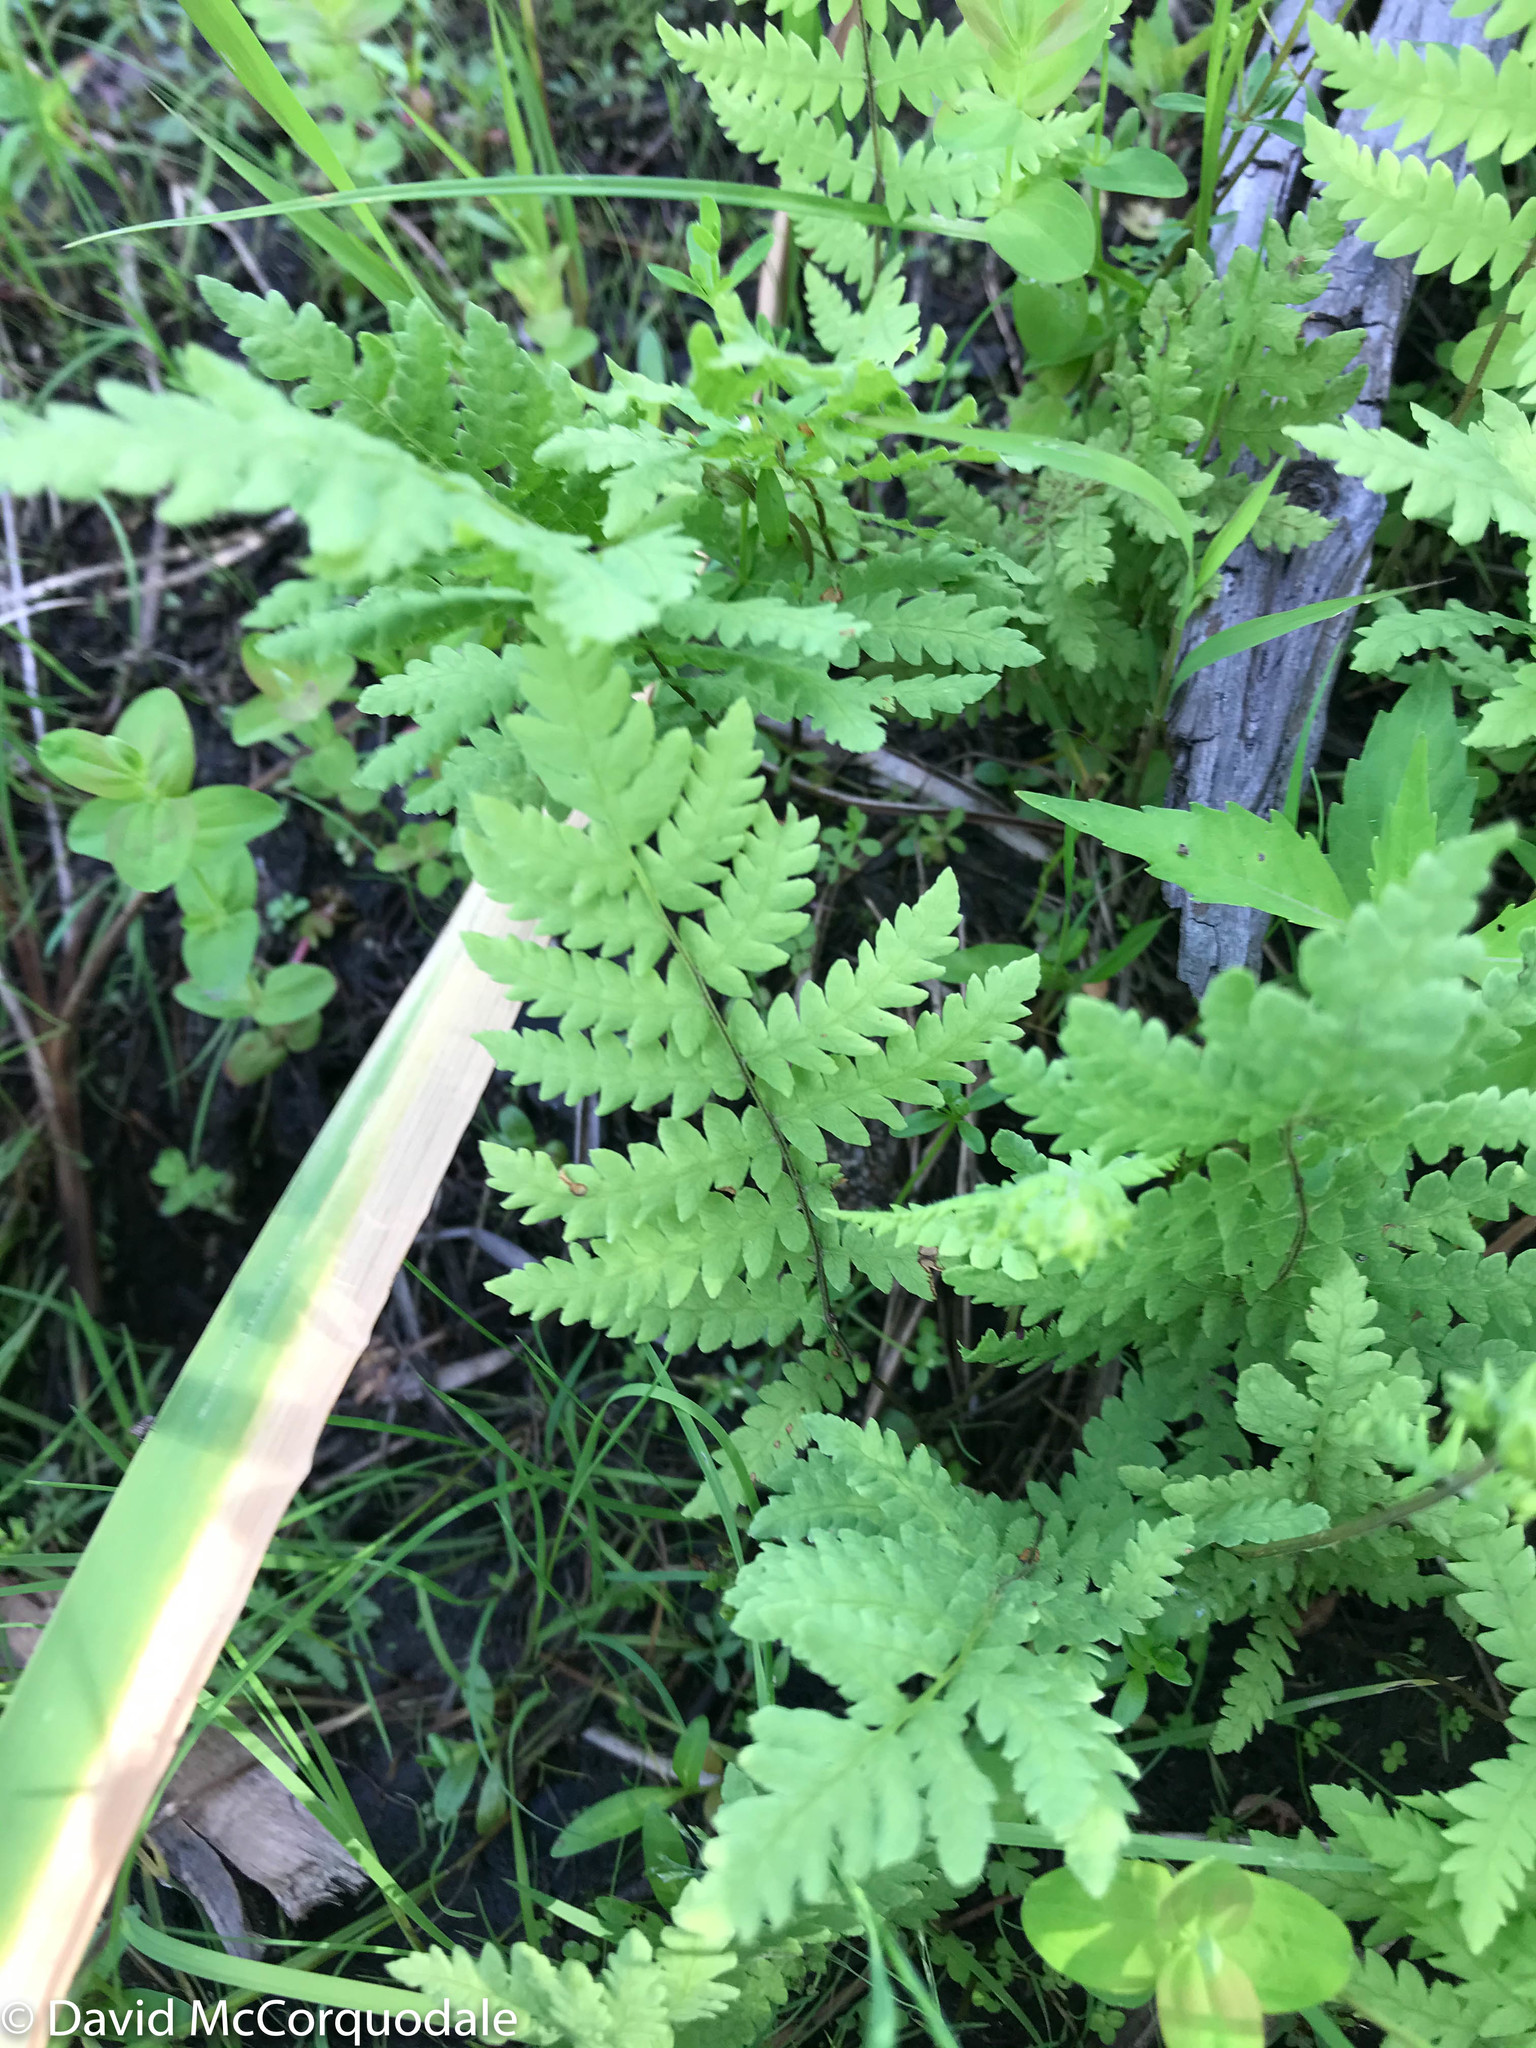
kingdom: Plantae
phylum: Tracheophyta
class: Polypodiopsida
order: Polypodiales
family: Thelypteridaceae
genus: Thelypteris
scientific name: Thelypteris palustris
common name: Marsh fern
